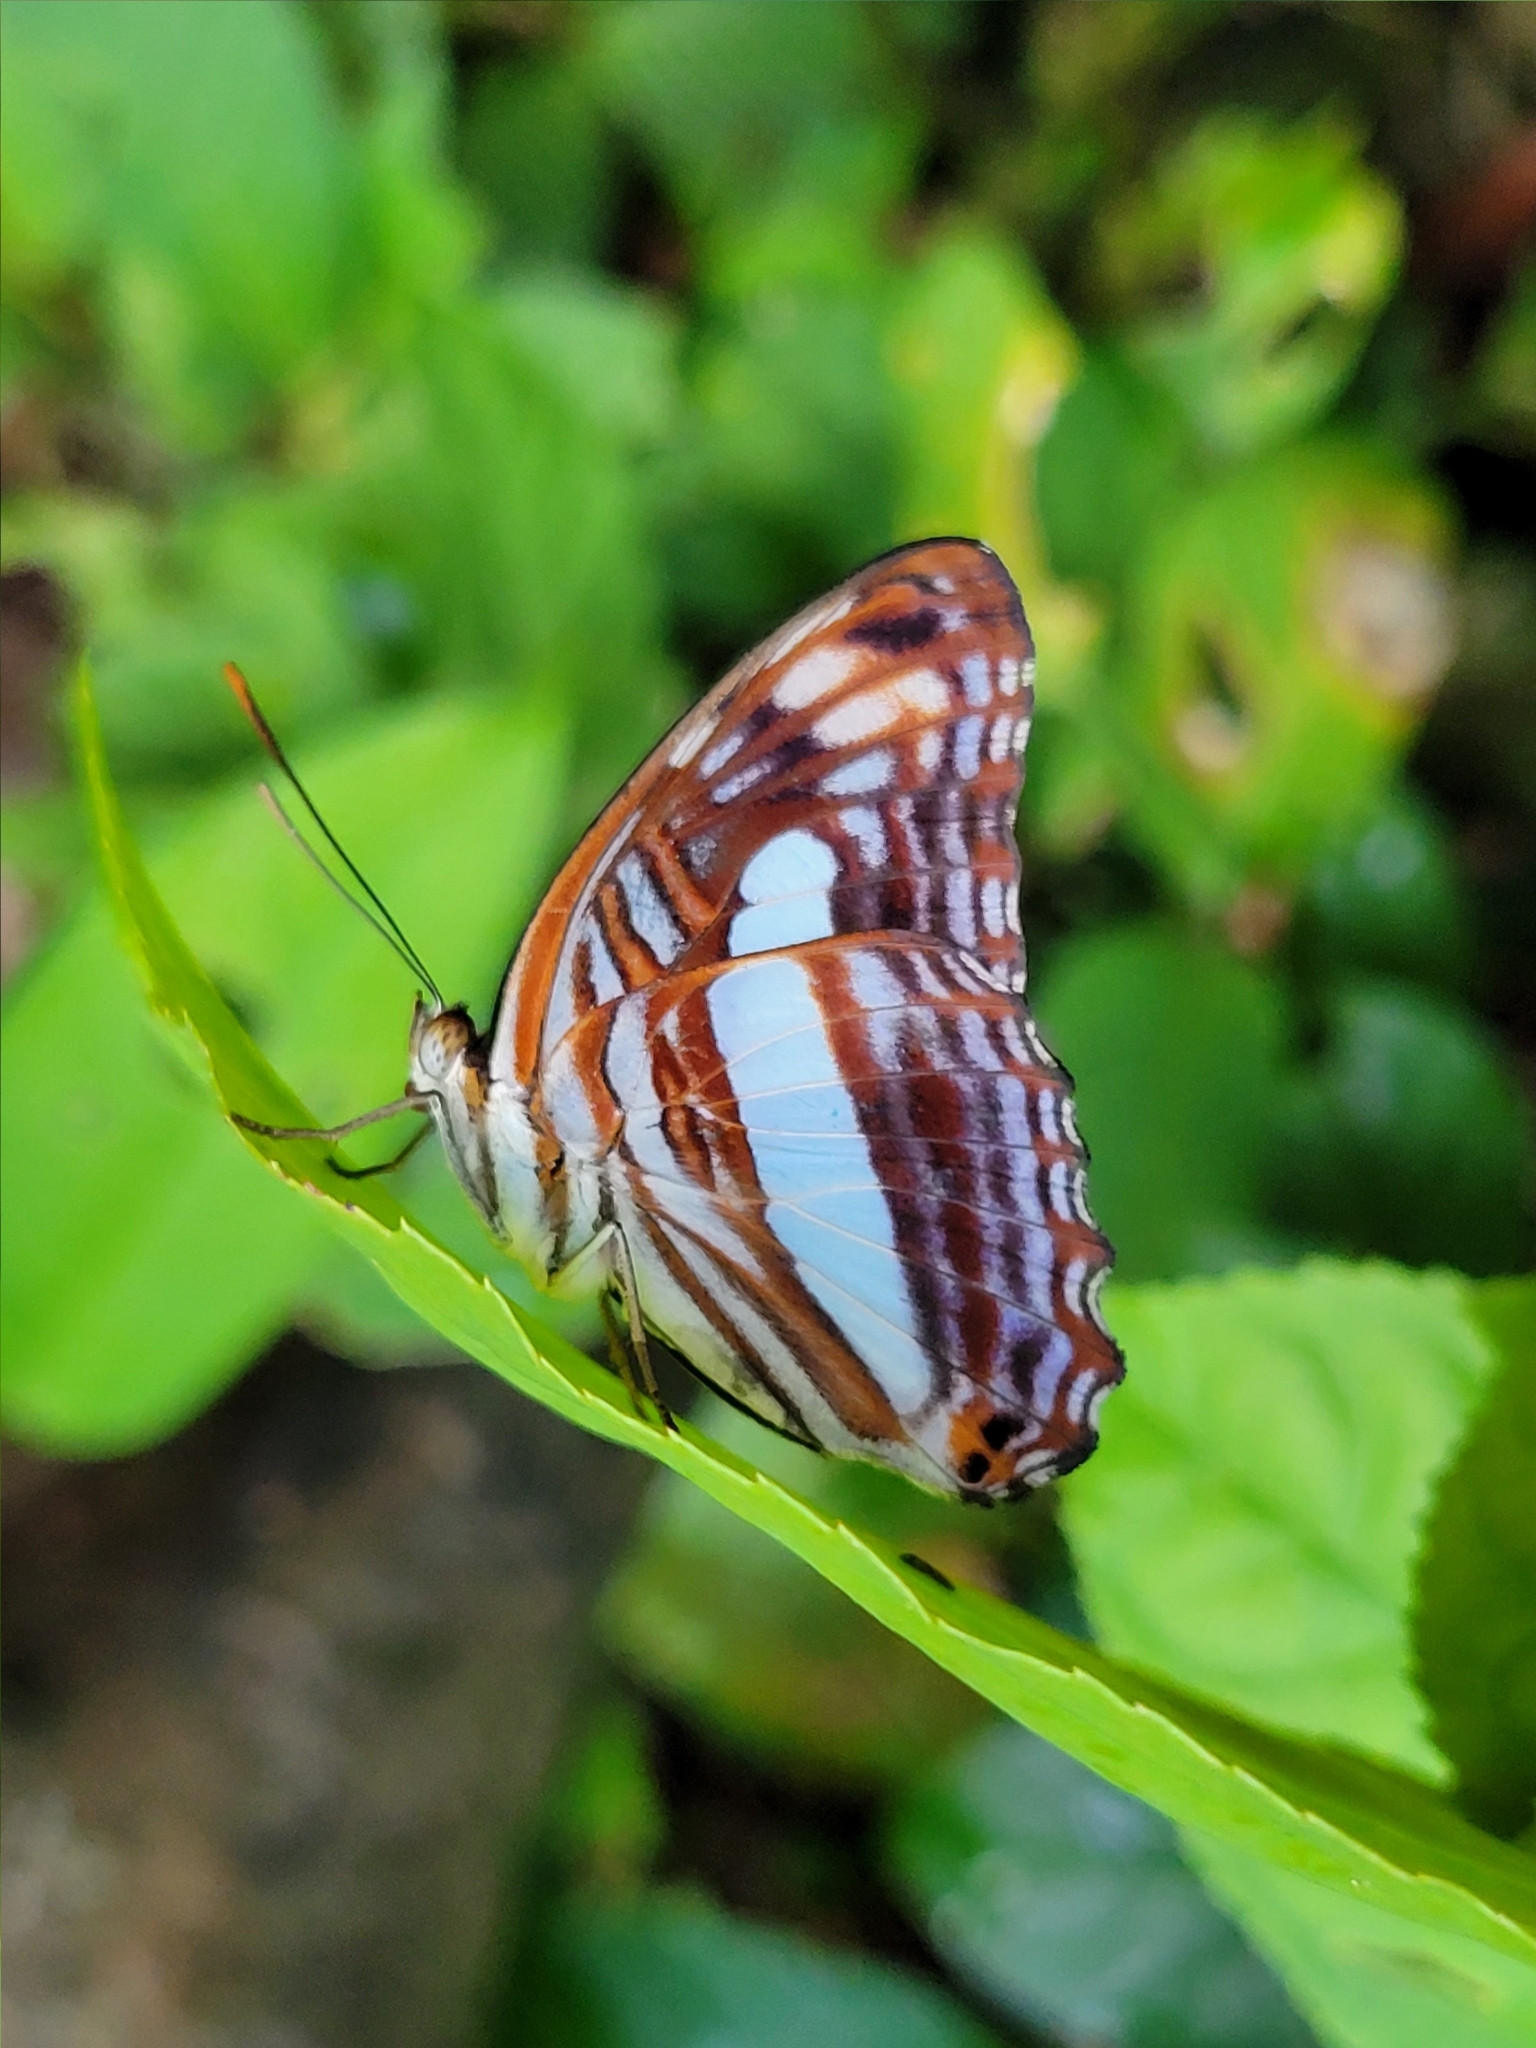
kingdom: Animalia
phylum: Arthropoda
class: Insecta
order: Lepidoptera
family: Nymphalidae
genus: Limenitis
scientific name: Limenitis Adelpha iphiclus
